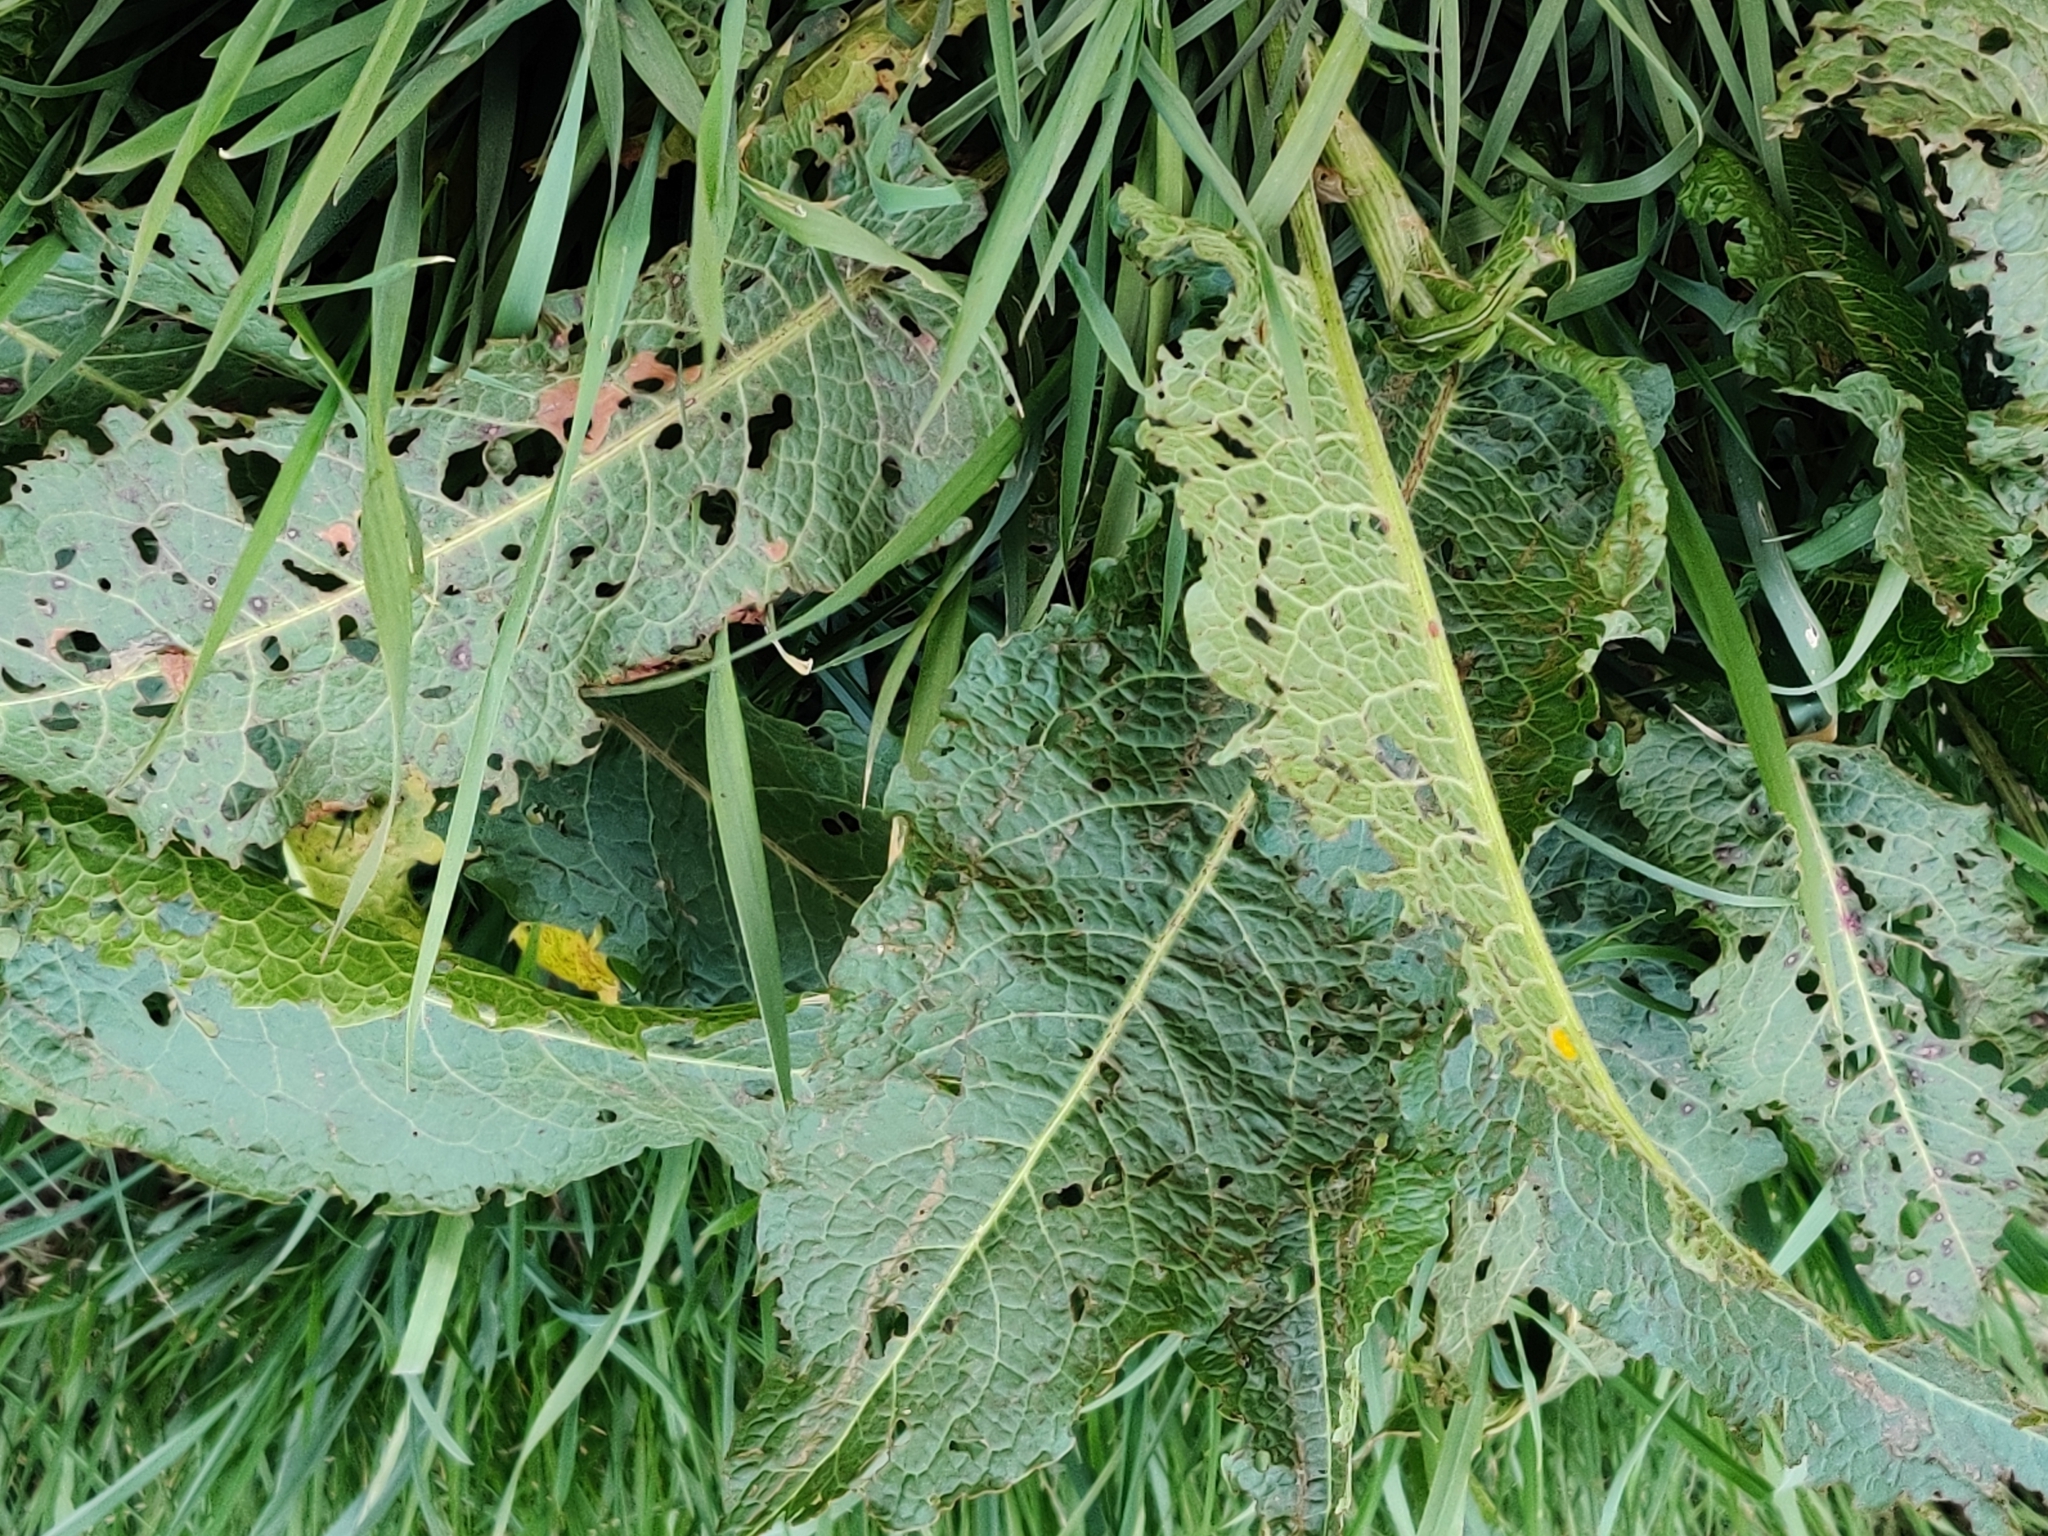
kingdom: Plantae
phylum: Tracheophyta
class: Magnoliopsida
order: Caryophyllales
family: Polygonaceae
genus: Rumex
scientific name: Rumex obtusifolius
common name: Bitter dock
